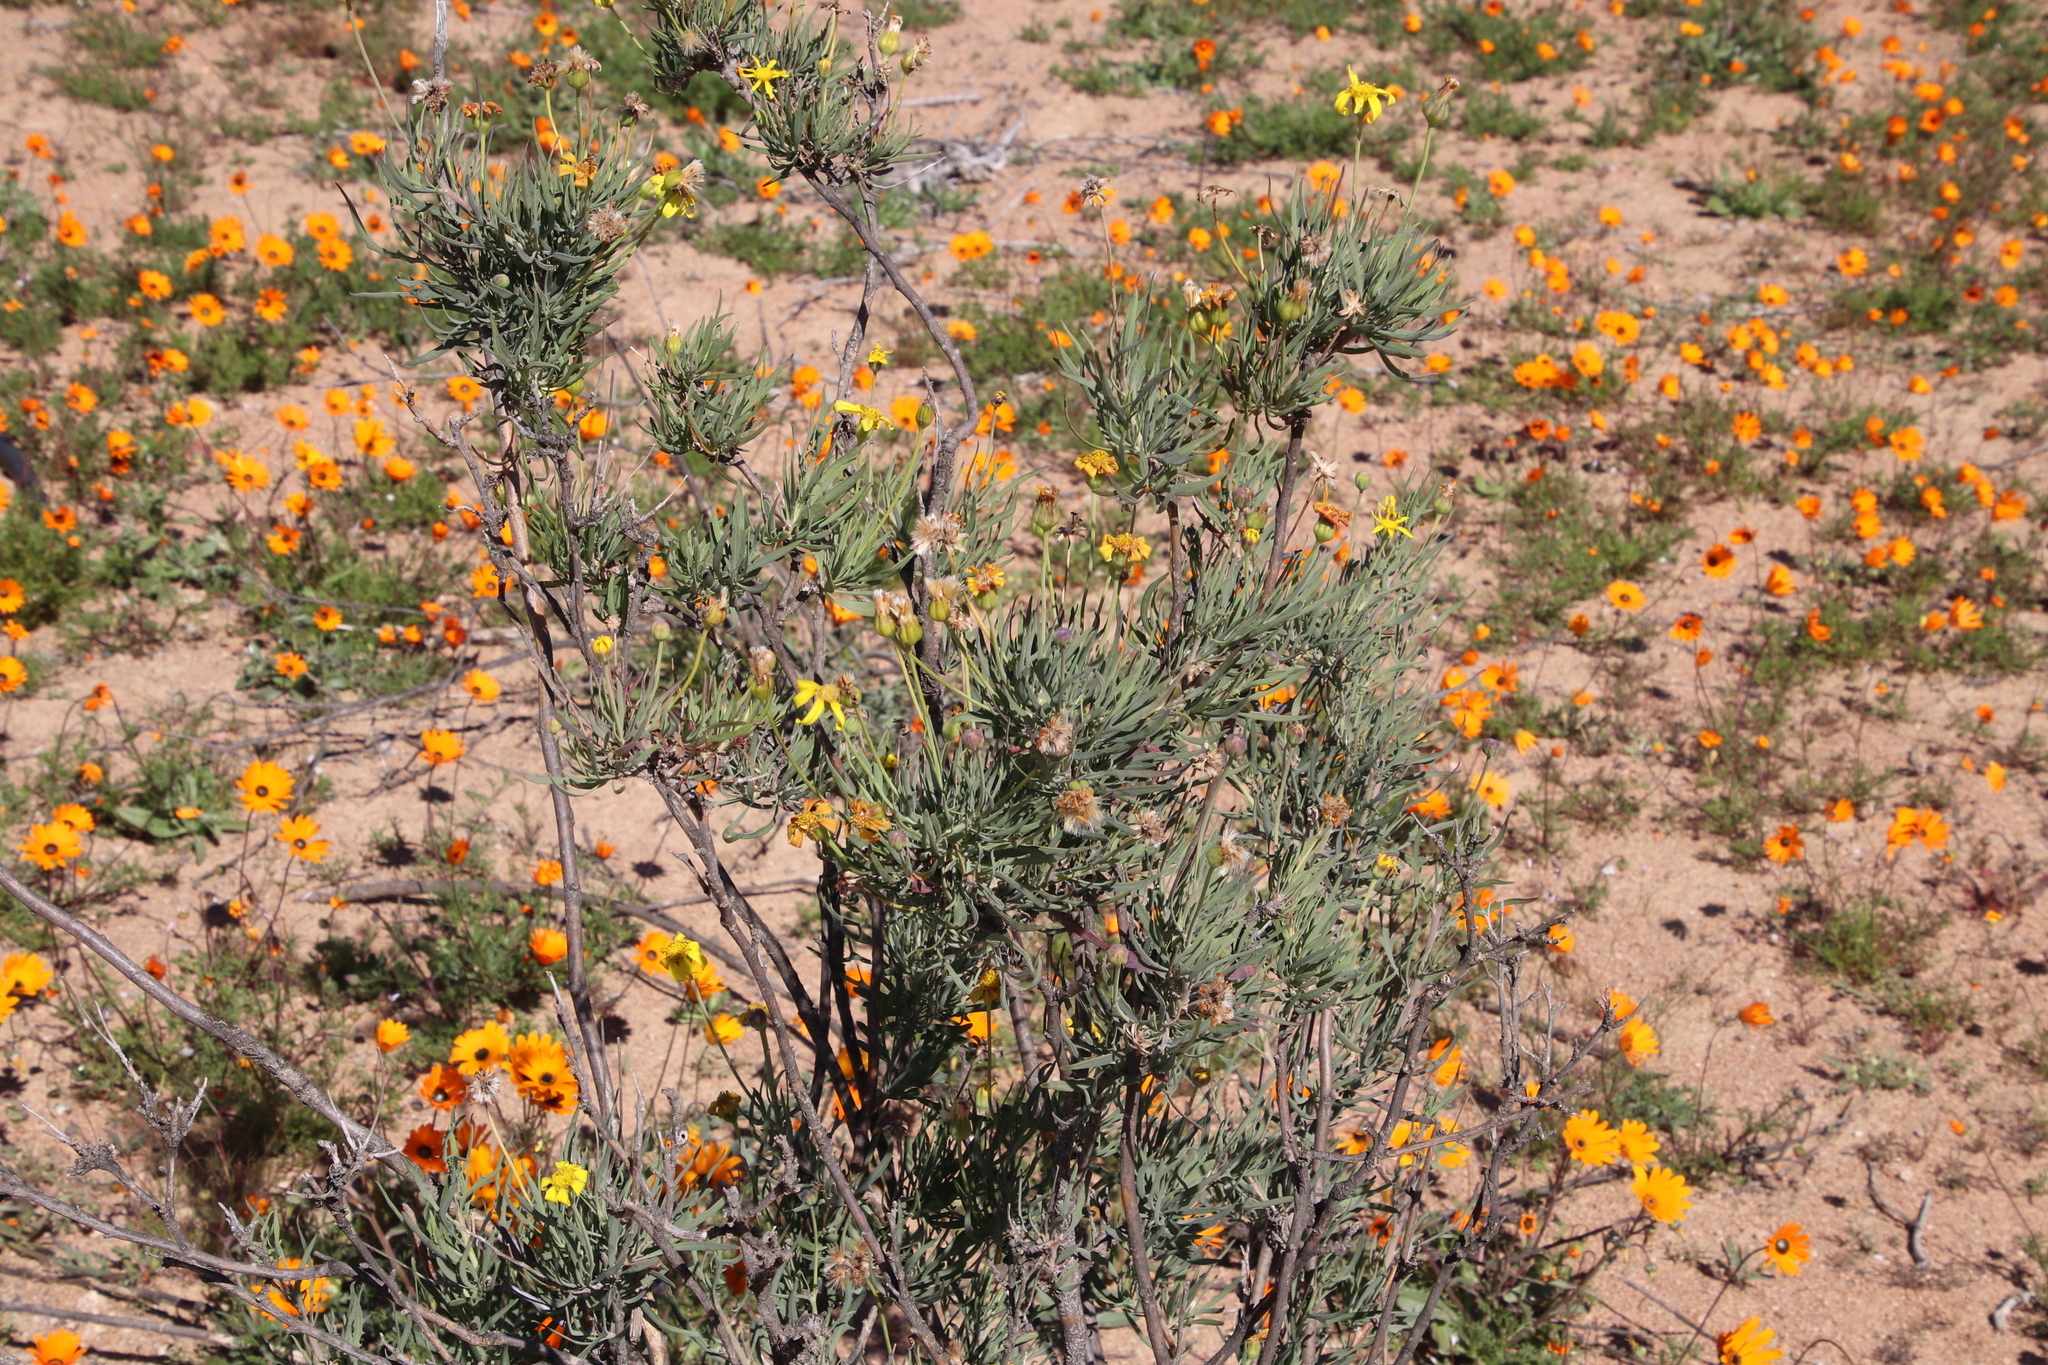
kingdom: Plantae
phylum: Tracheophyta
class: Magnoliopsida
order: Asterales
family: Asteraceae
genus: Othonna
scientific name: Othonna coronopifolia
